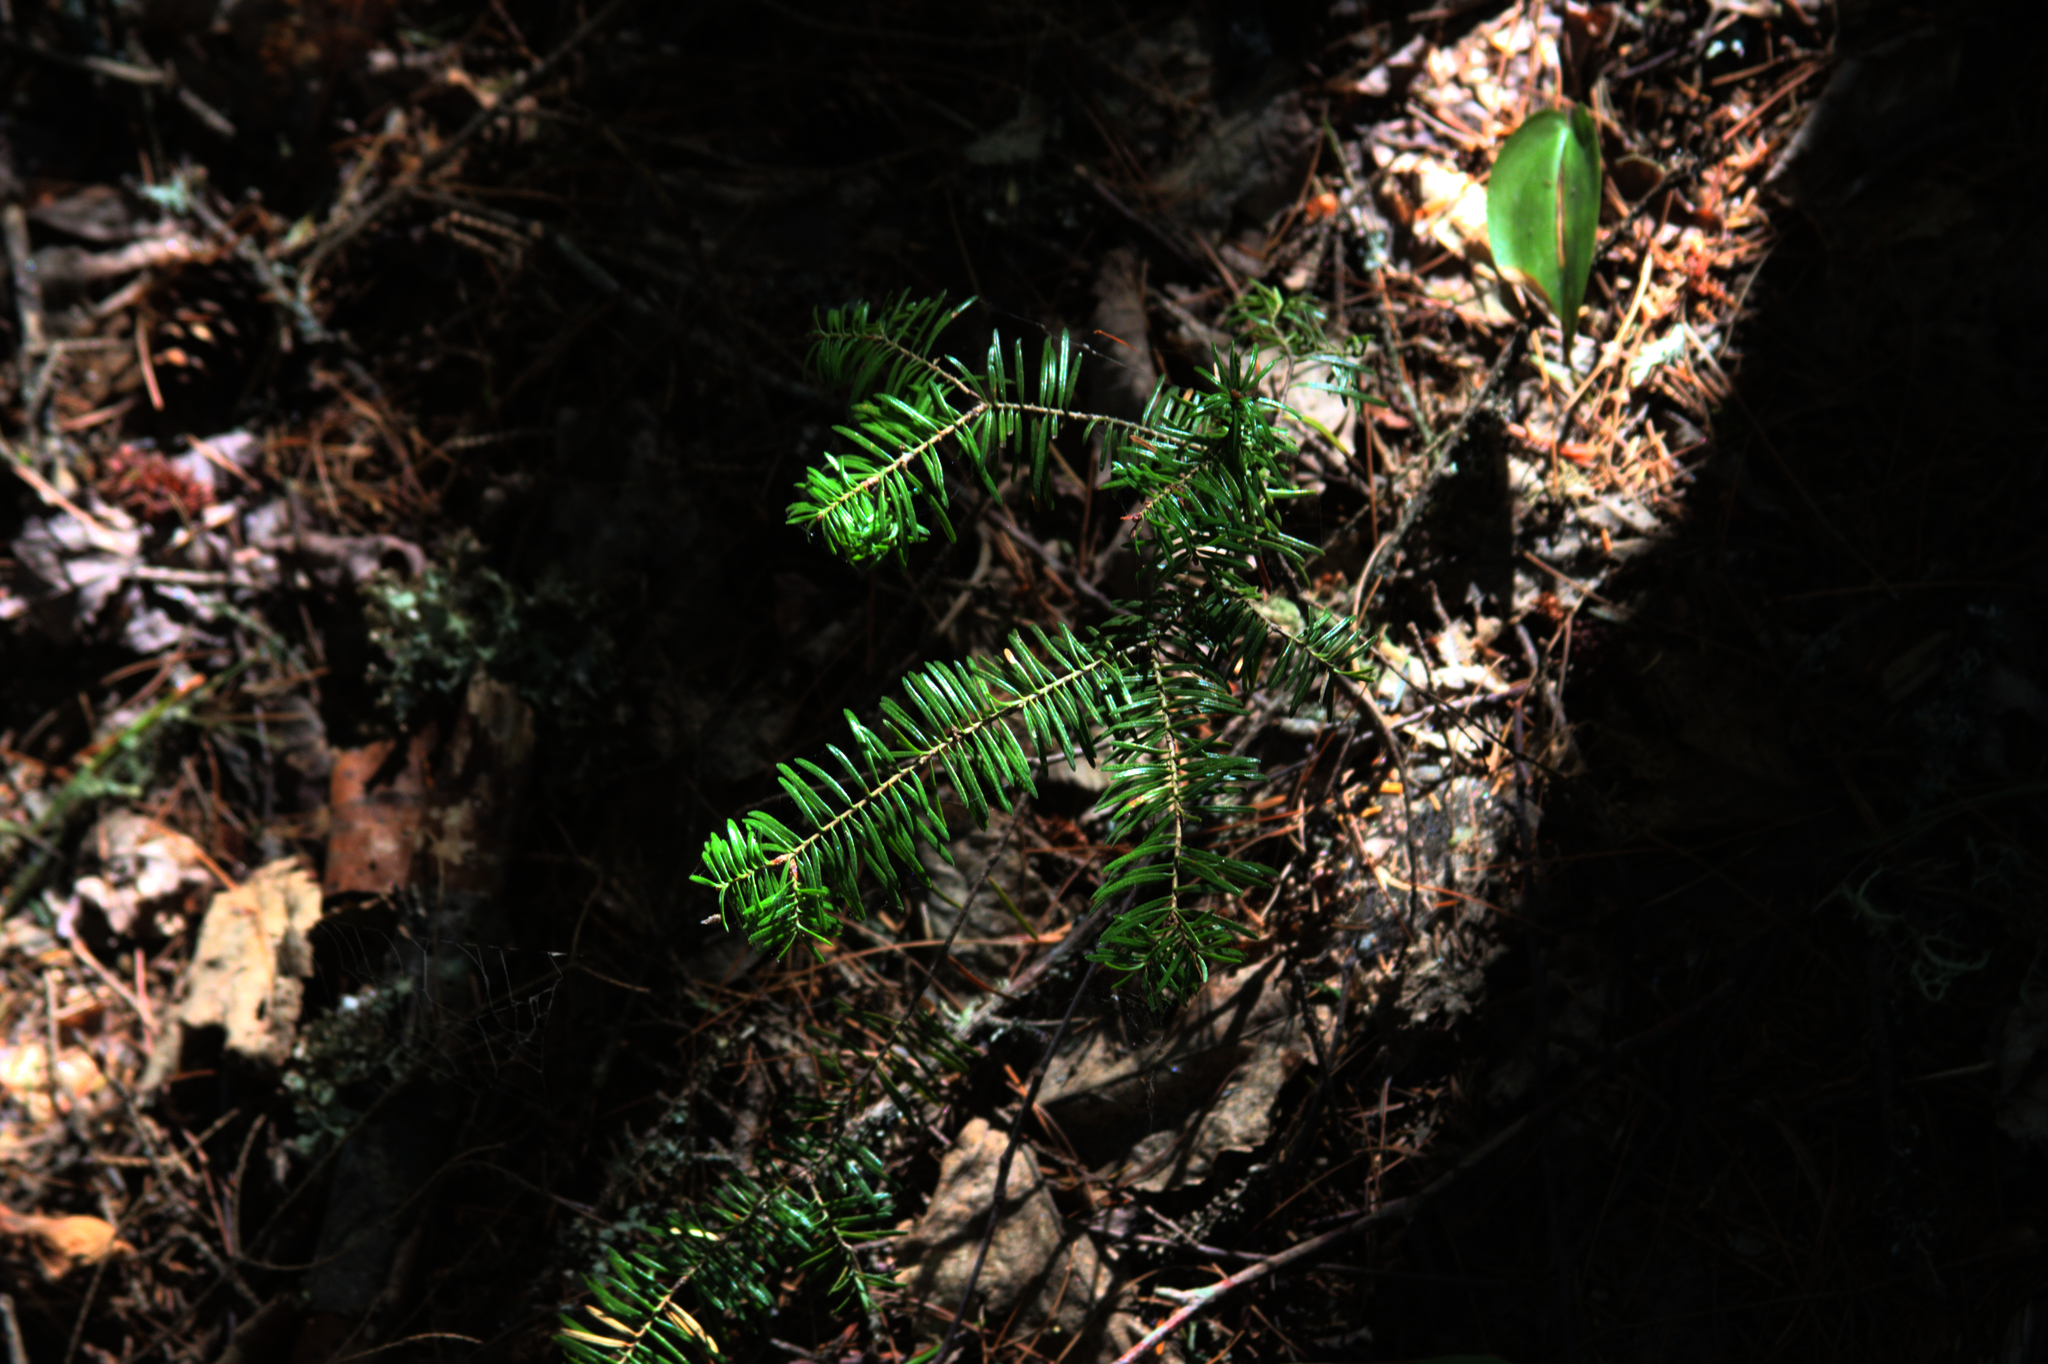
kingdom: Plantae
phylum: Tracheophyta
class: Liliopsida
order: Asparagales
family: Asparagaceae
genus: Maianthemum
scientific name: Maianthemum canadense
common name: False lily-of-the-valley
